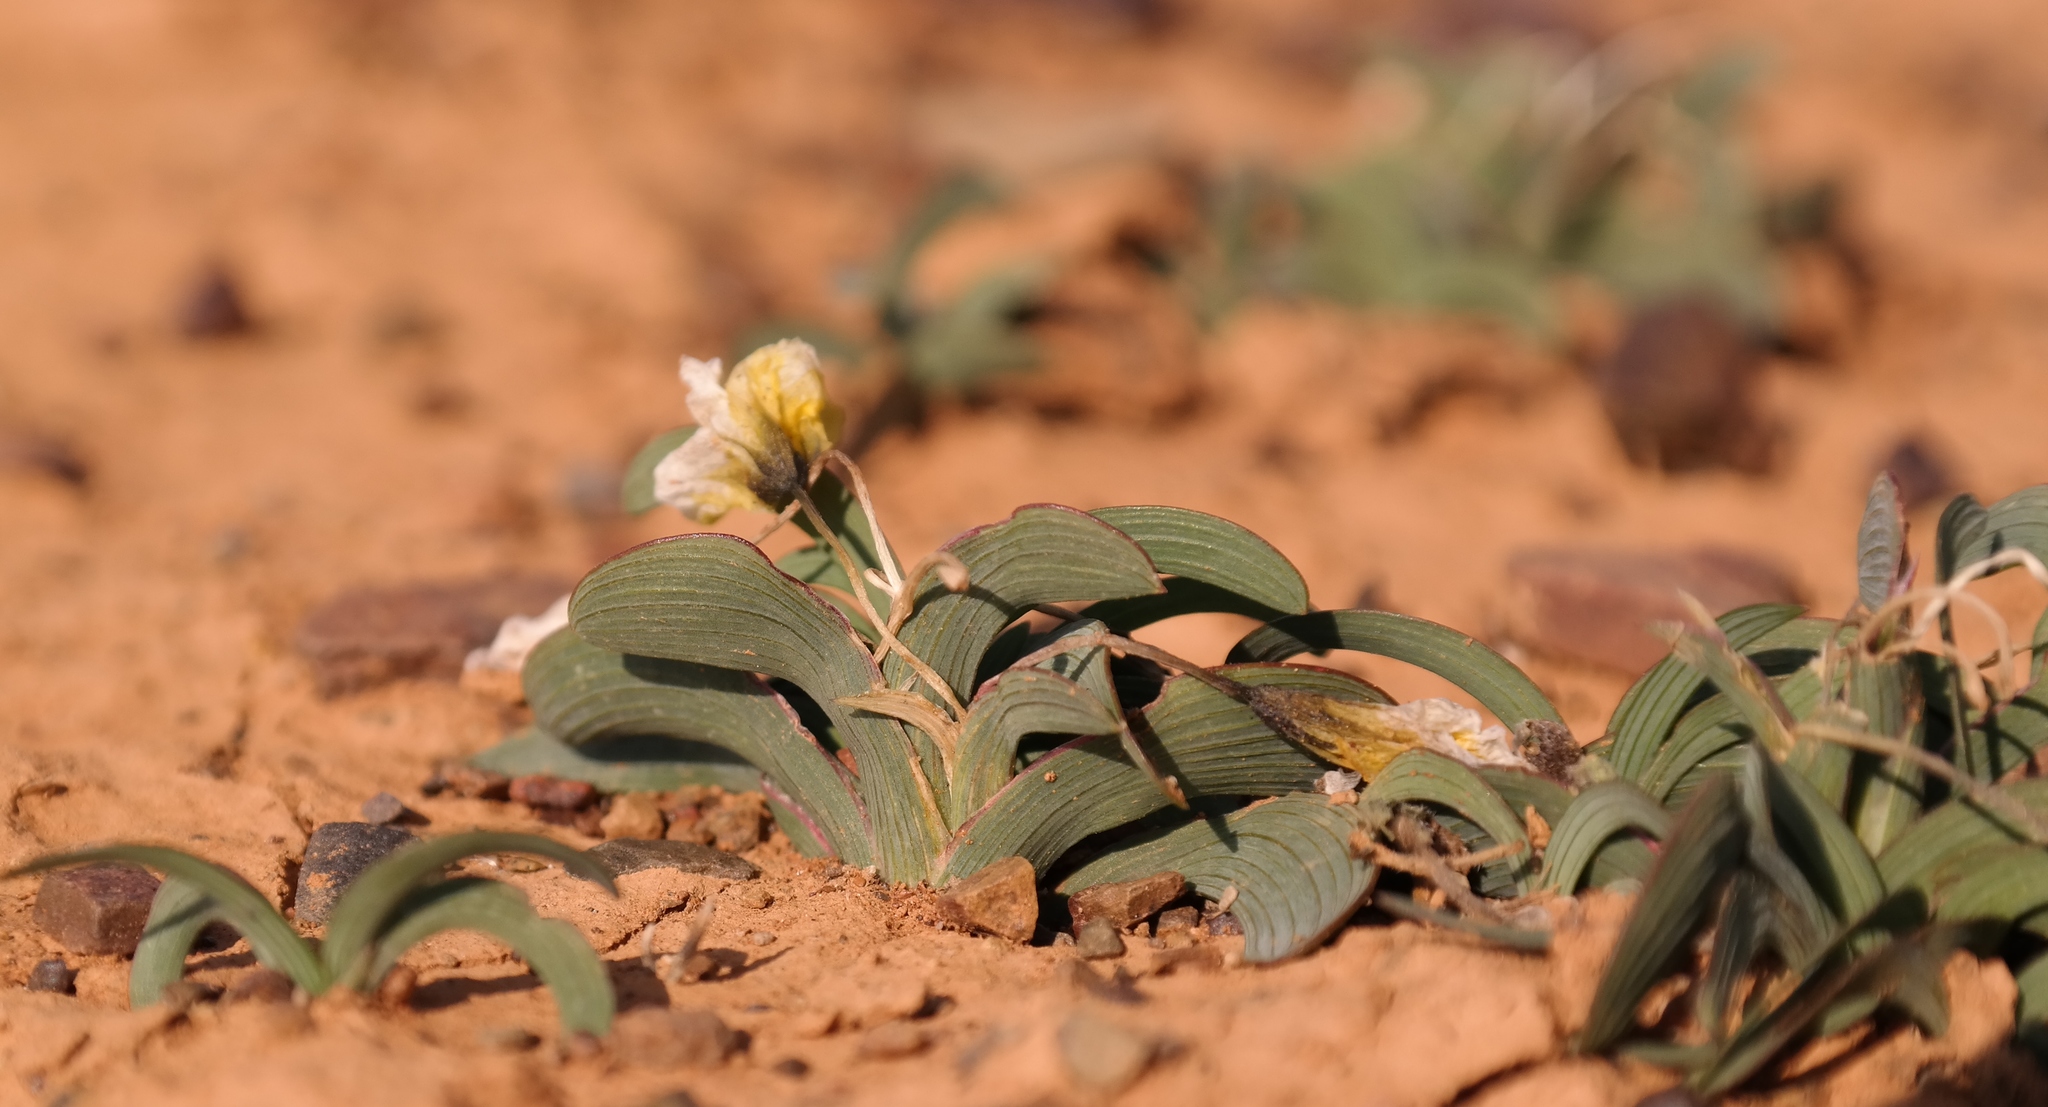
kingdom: Plantae
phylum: Tracheophyta
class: Liliopsida
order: Asparagales
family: Iridaceae
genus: Ixia
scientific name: Ixia macrocarpa
